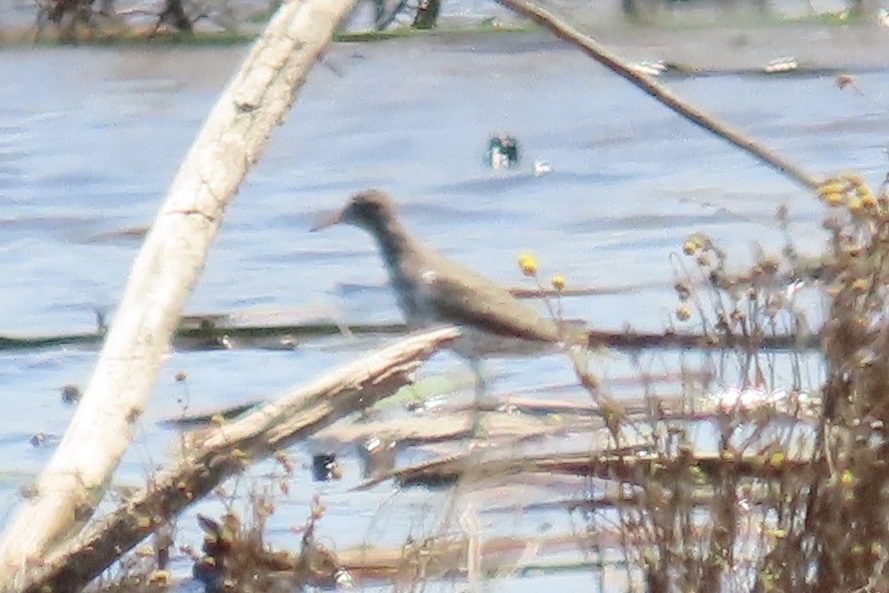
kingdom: Animalia
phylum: Chordata
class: Aves
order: Charadriiformes
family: Scolopacidae
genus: Actitis
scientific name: Actitis macularius
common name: Spotted sandpiper
